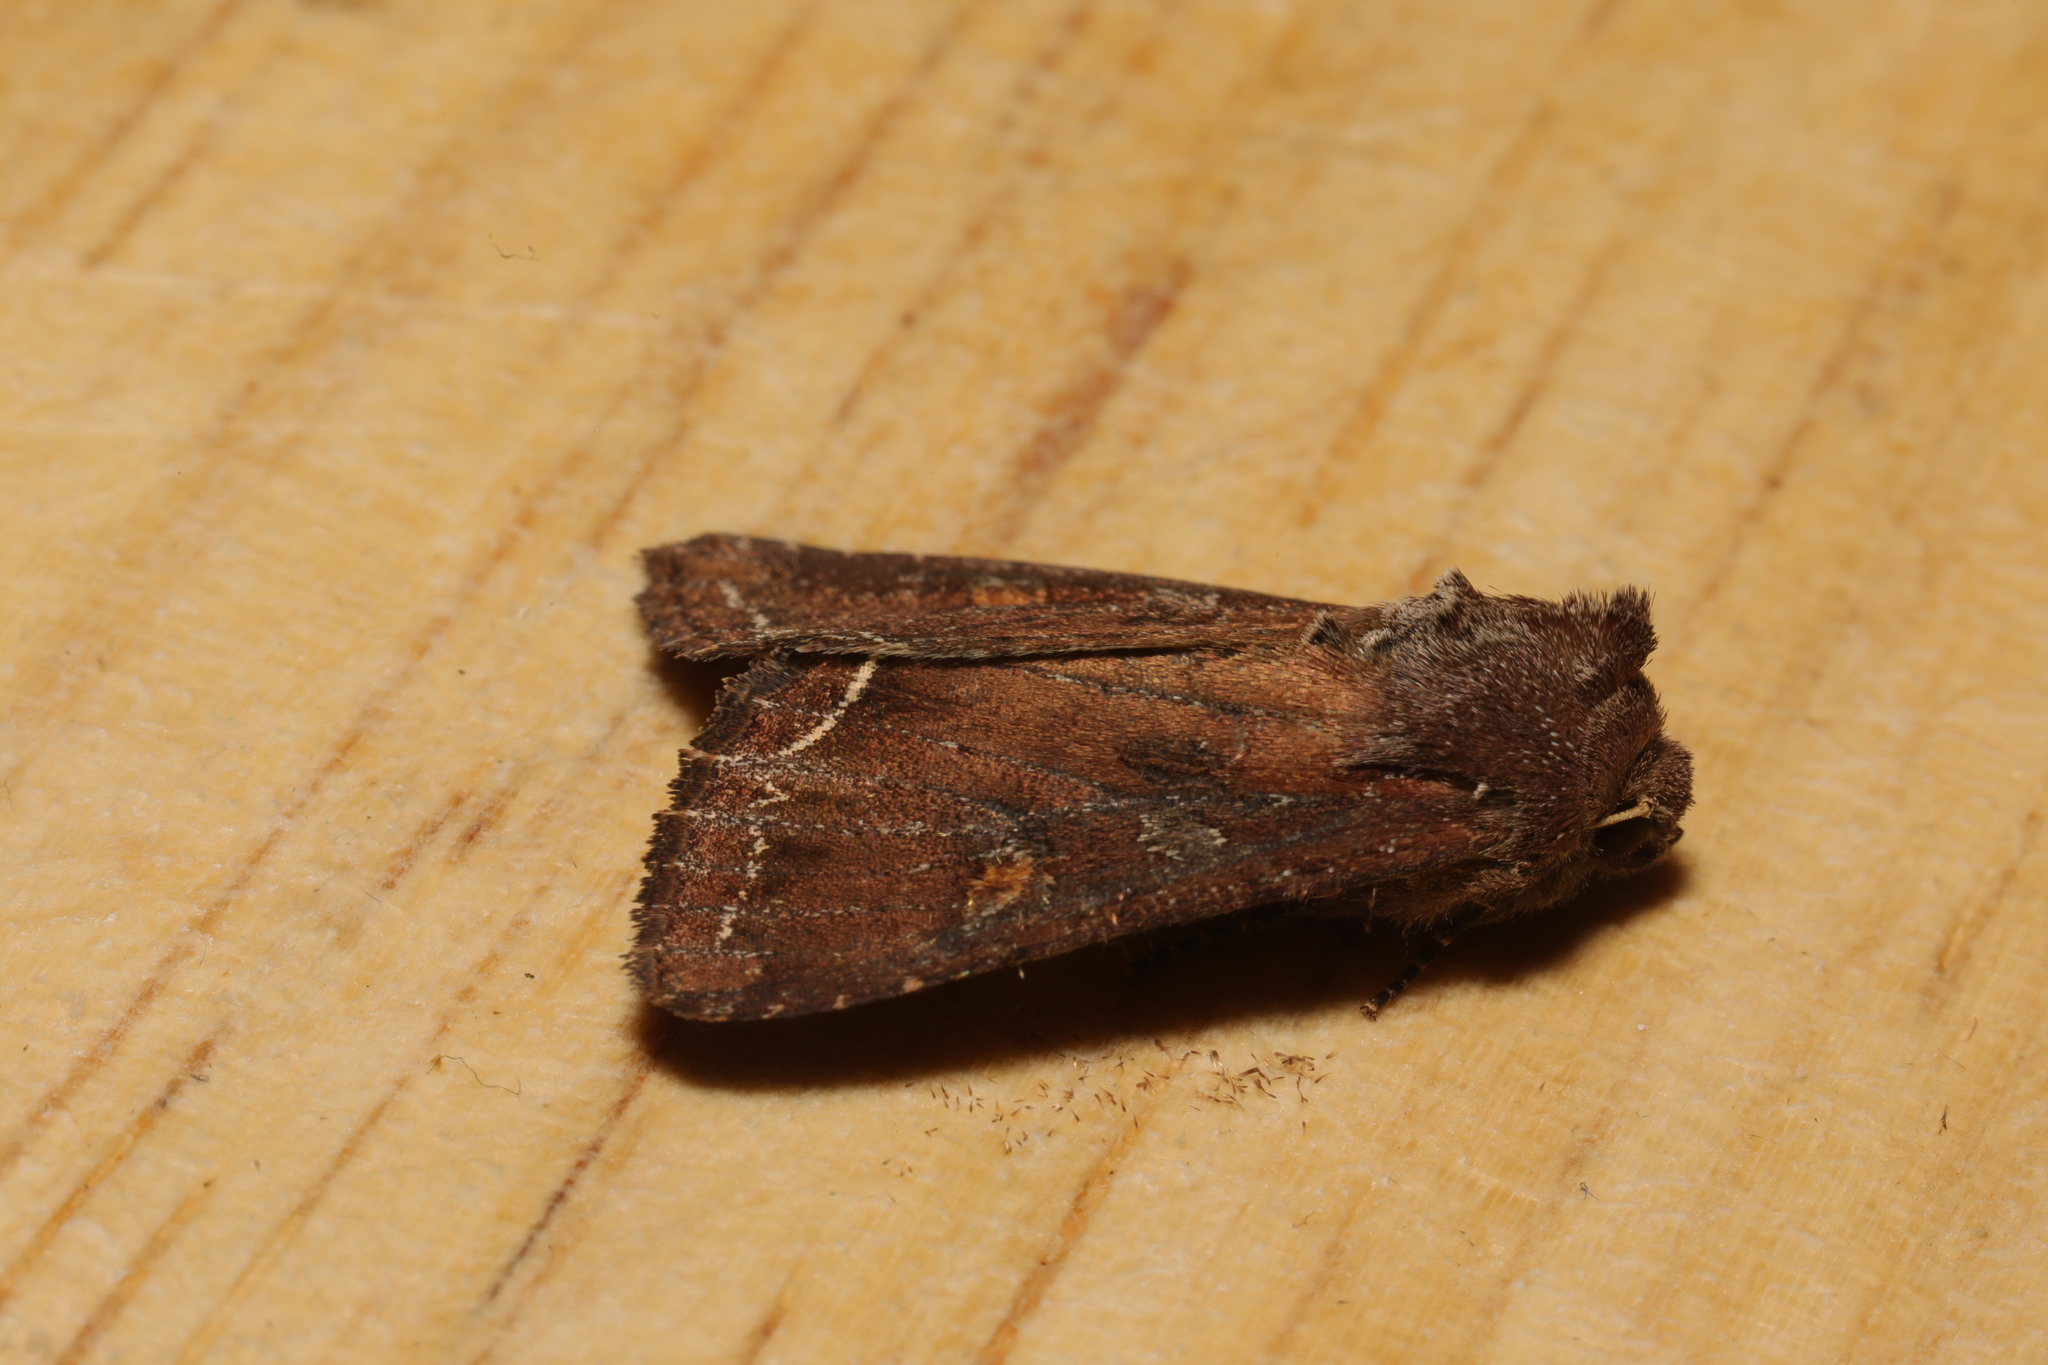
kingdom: Animalia
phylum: Arthropoda
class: Insecta
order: Lepidoptera
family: Noctuidae
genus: Lacanobia
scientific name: Lacanobia oleracea
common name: Bright-line brown-eye
